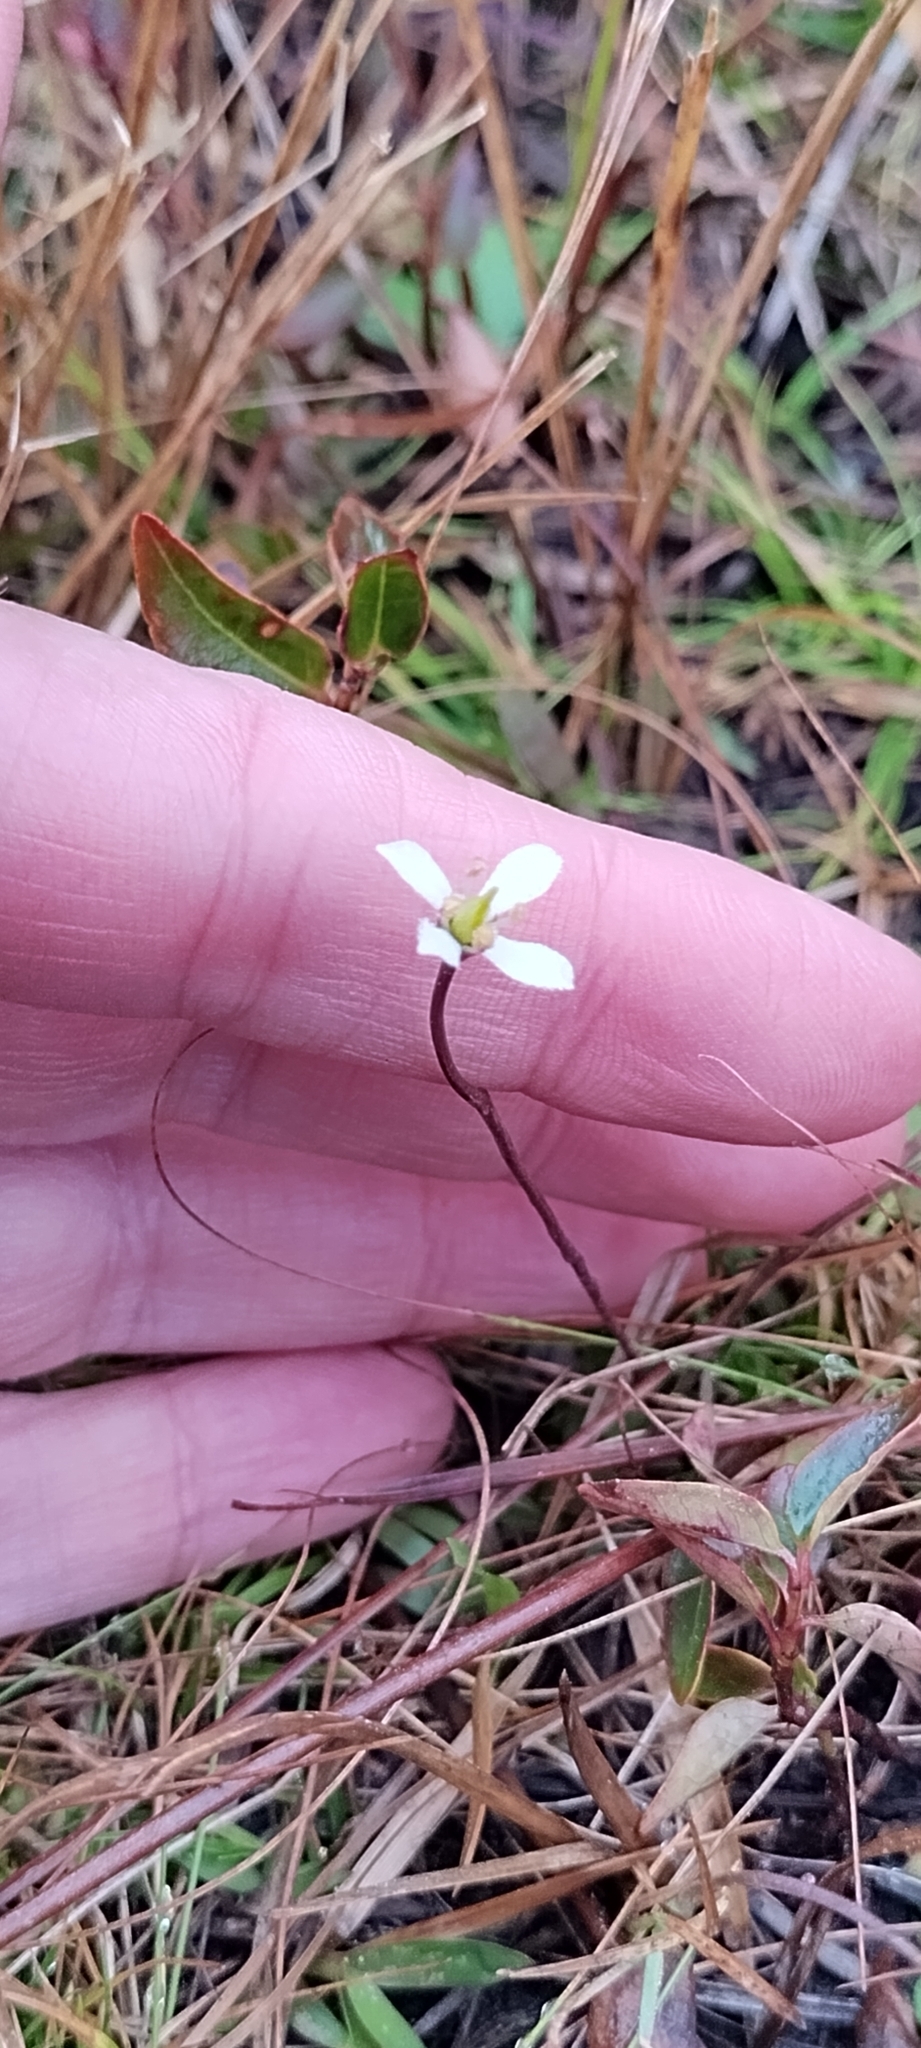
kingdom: Plantae
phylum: Tracheophyta
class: Magnoliopsida
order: Gentianales
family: Gentianaceae
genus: Bartonia
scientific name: Bartonia verna
